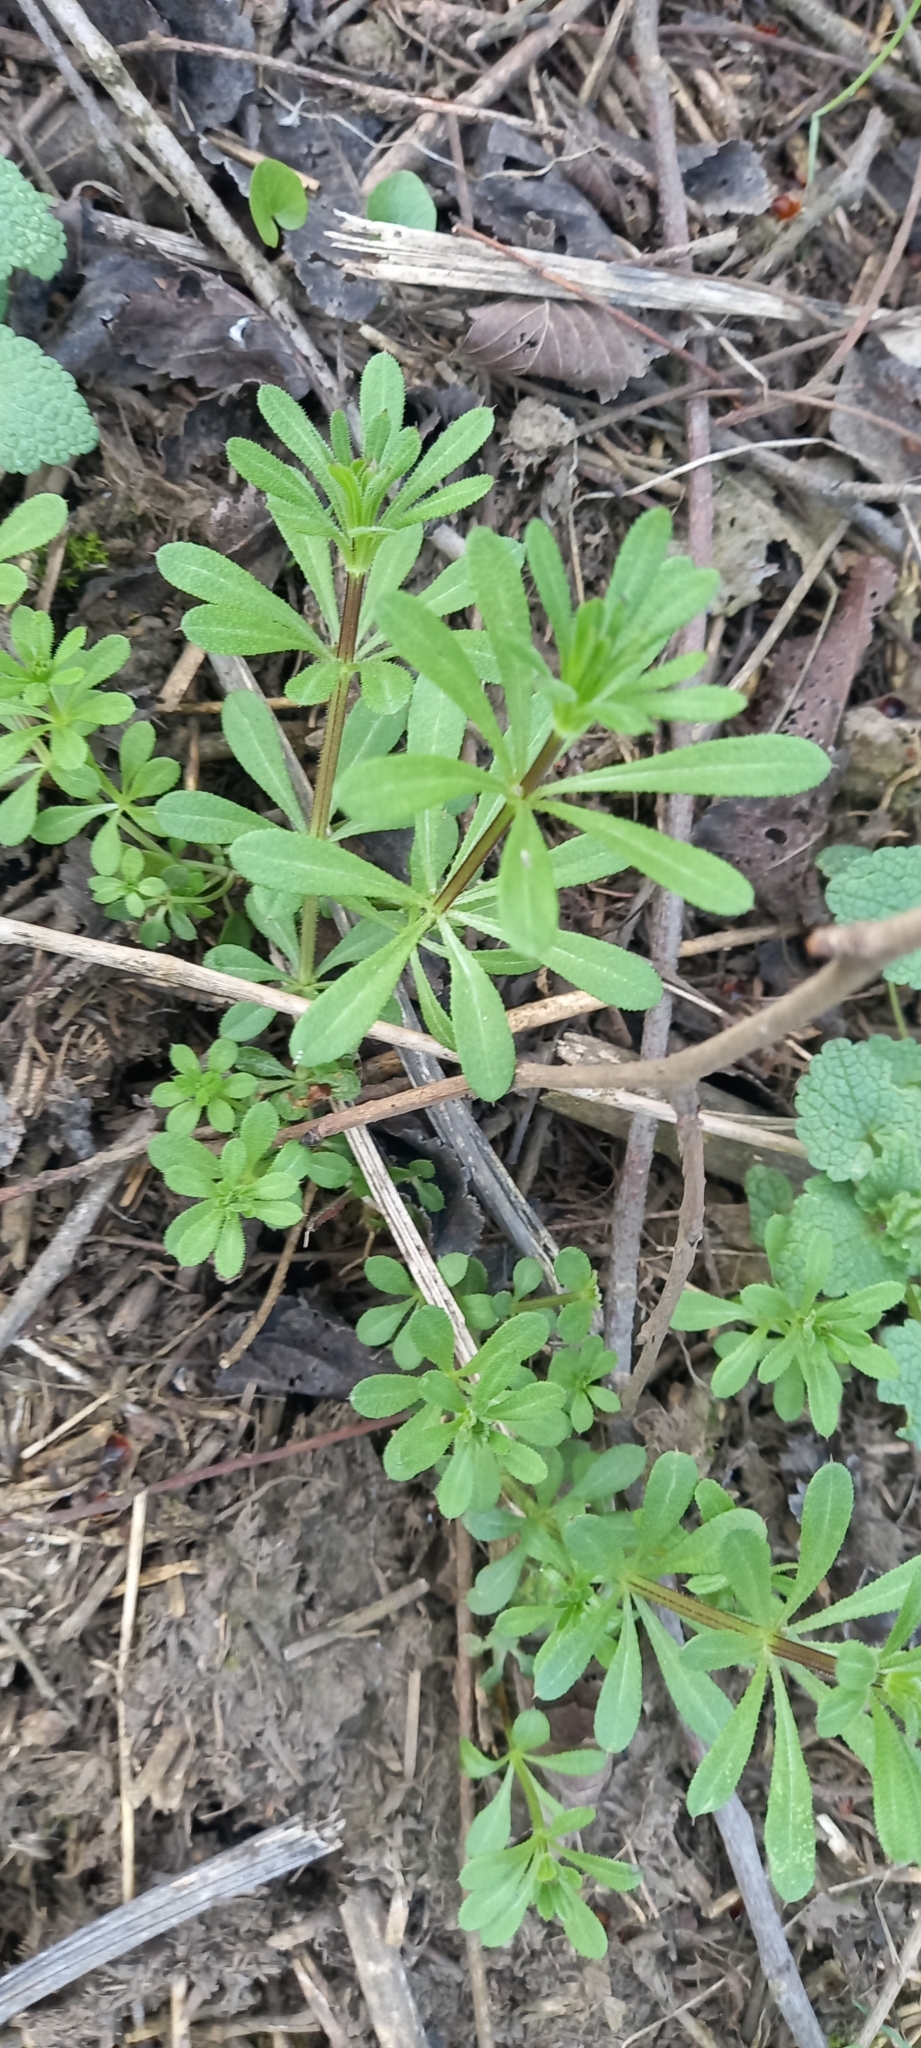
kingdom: Plantae
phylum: Tracheophyta
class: Magnoliopsida
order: Gentianales
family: Rubiaceae
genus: Galium
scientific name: Galium aparine
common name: Cleavers
